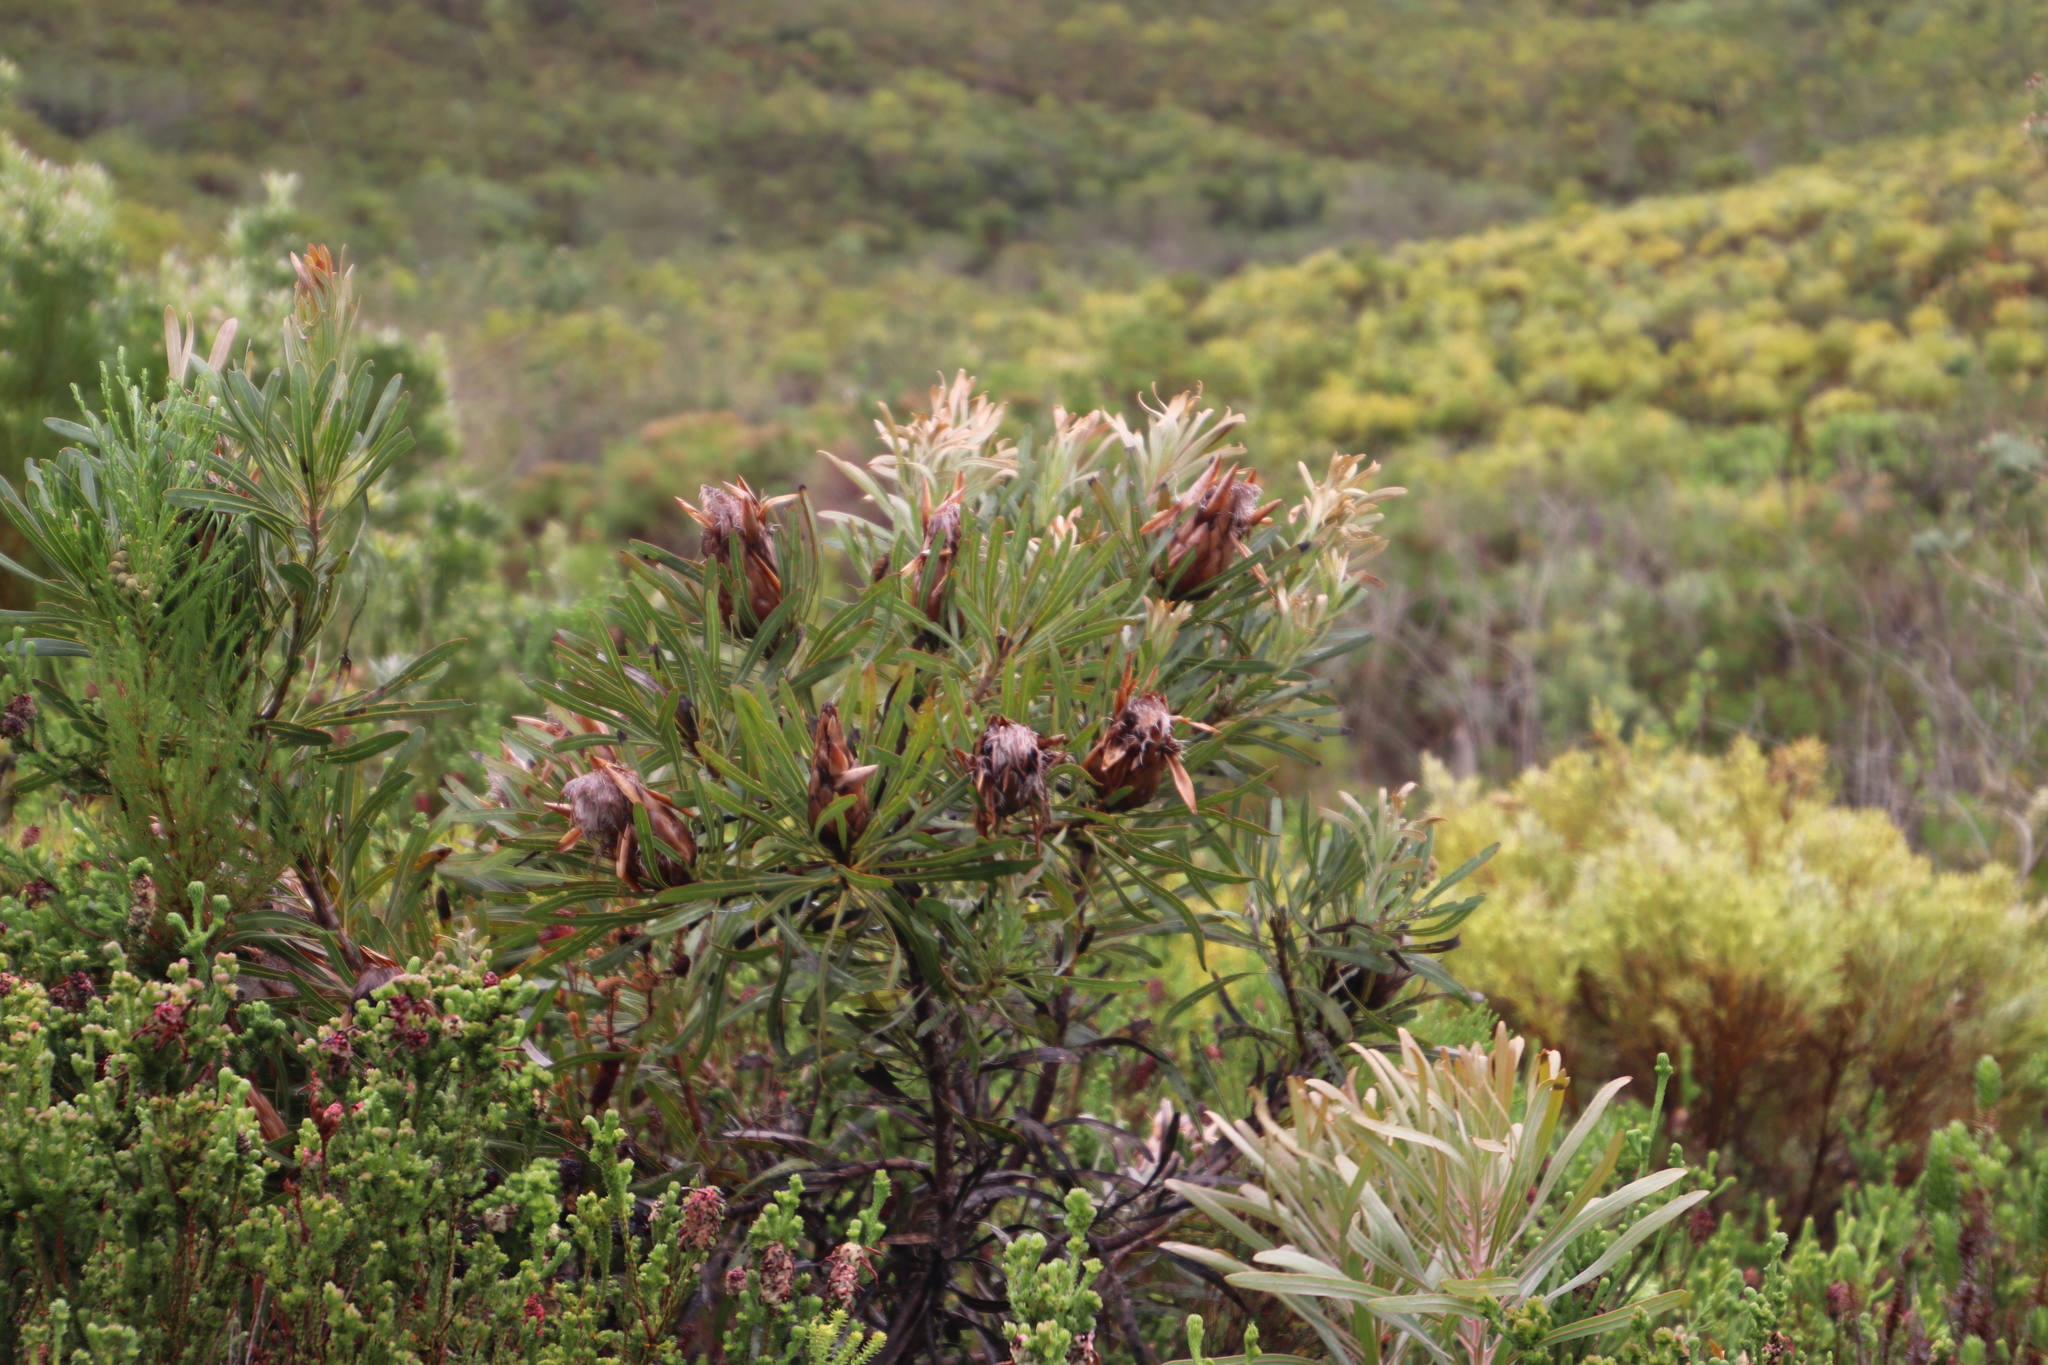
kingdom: Plantae
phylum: Tracheophyta
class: Magnoliopsida
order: Proteales
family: Proteaceae
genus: Protea
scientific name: Protea longifolia
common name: Long-leaf sugarbush
